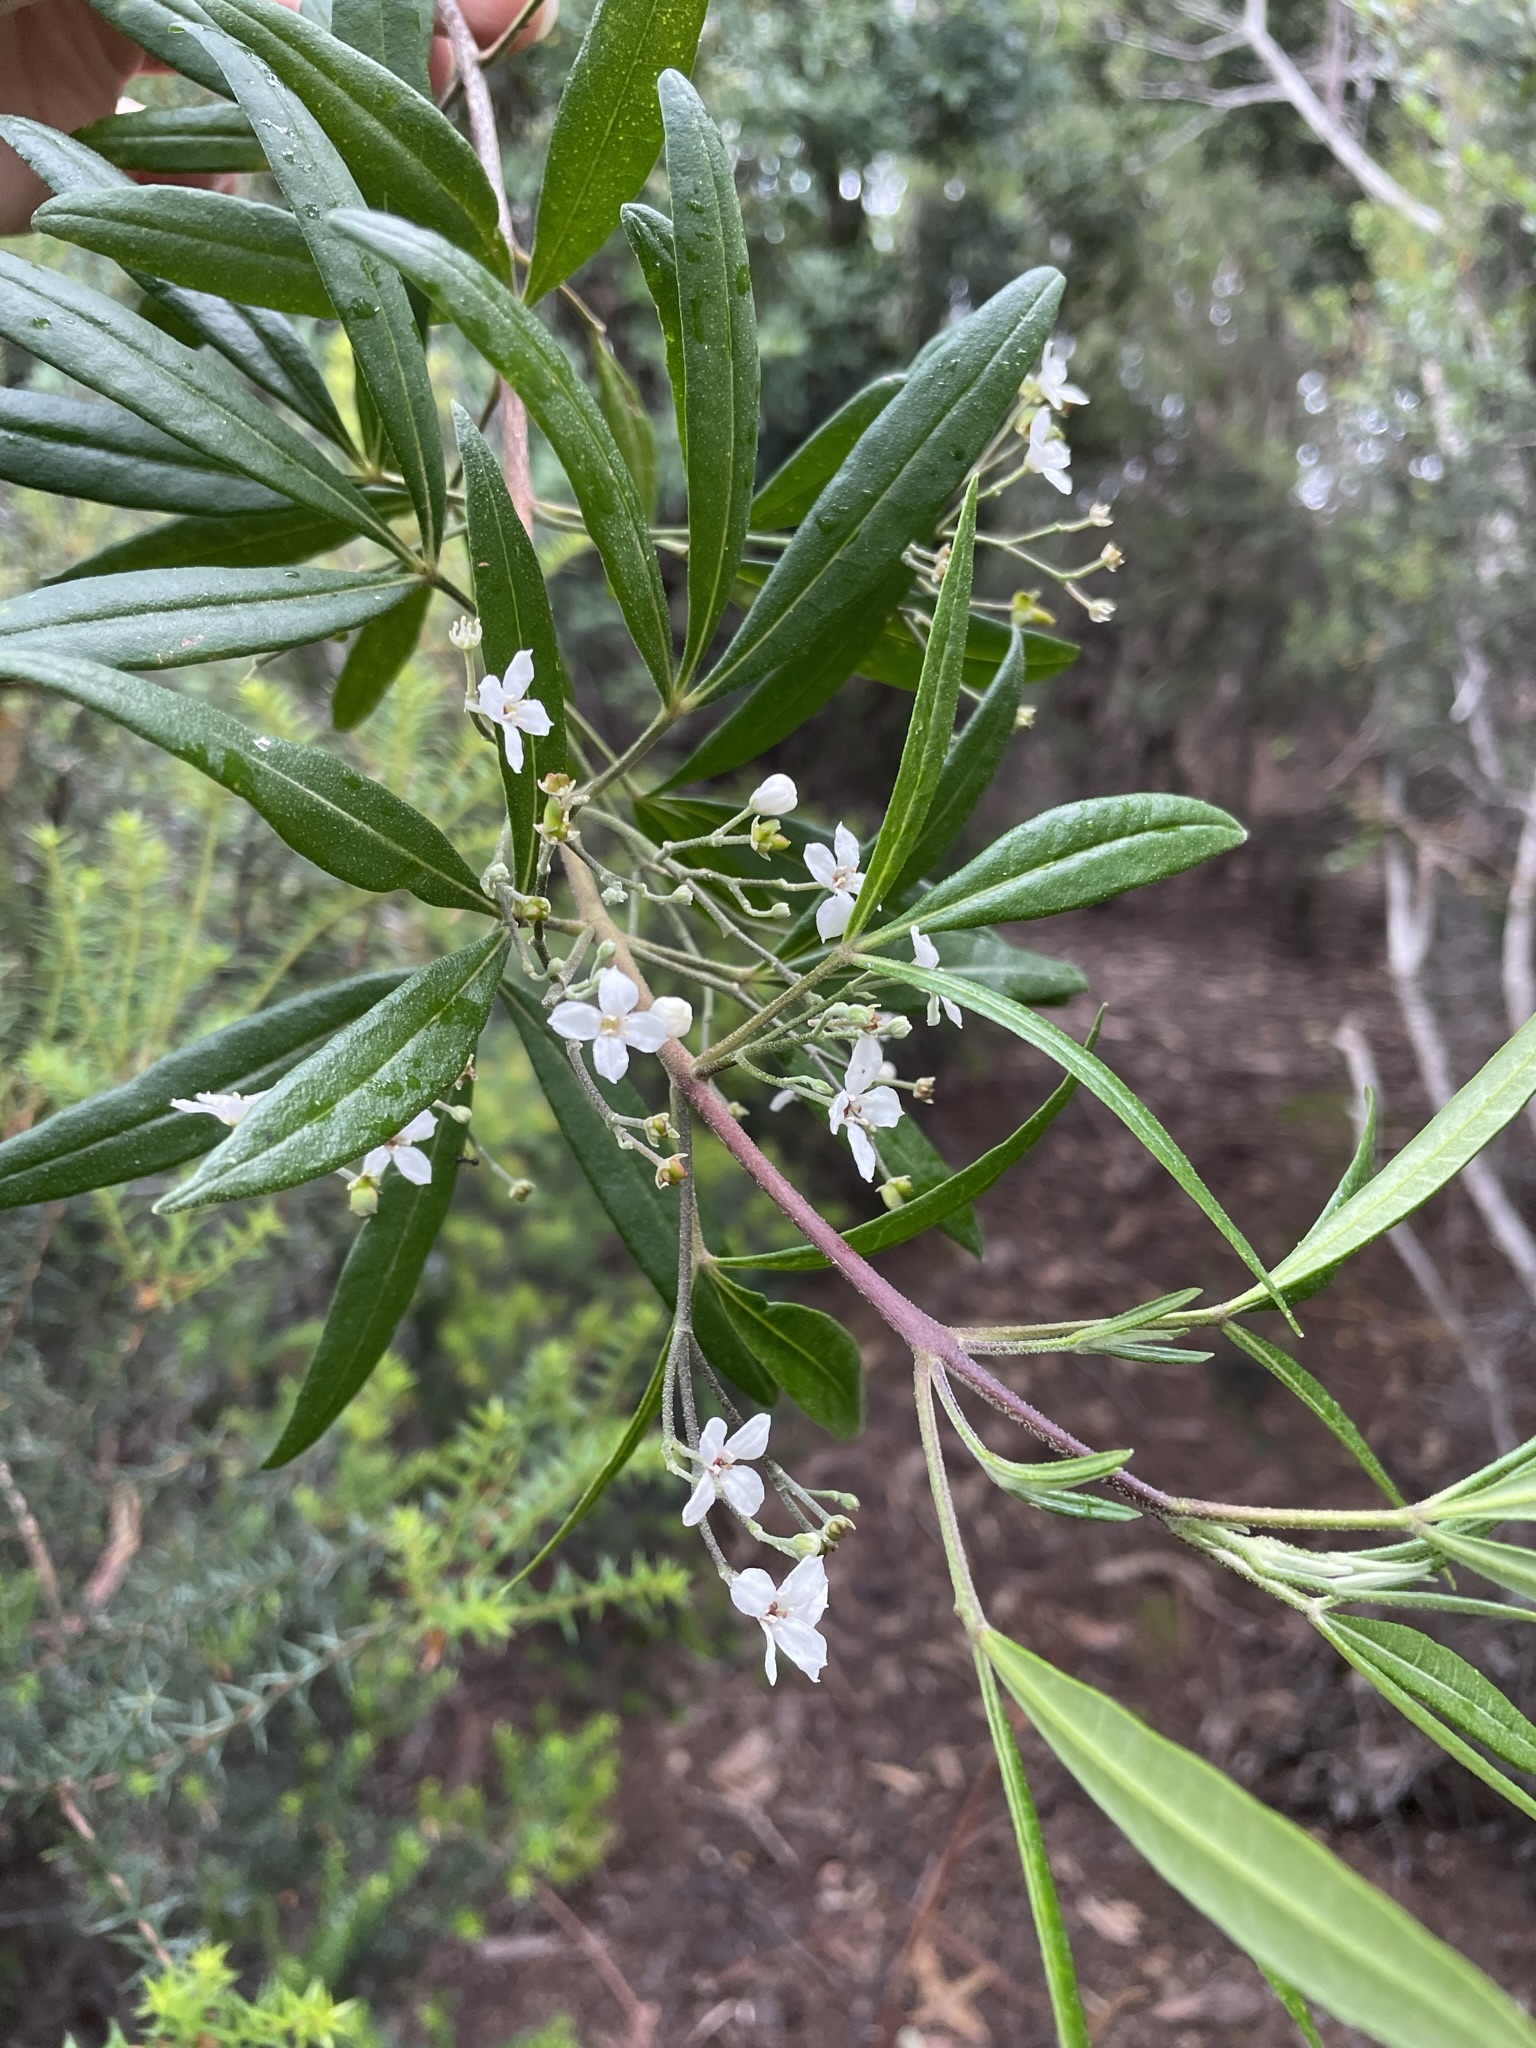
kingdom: Plantae
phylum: Tracheophyta
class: Magnoliopsida
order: Sapindales
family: Rutaceae
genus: Zieria
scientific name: Zieria arborescens
